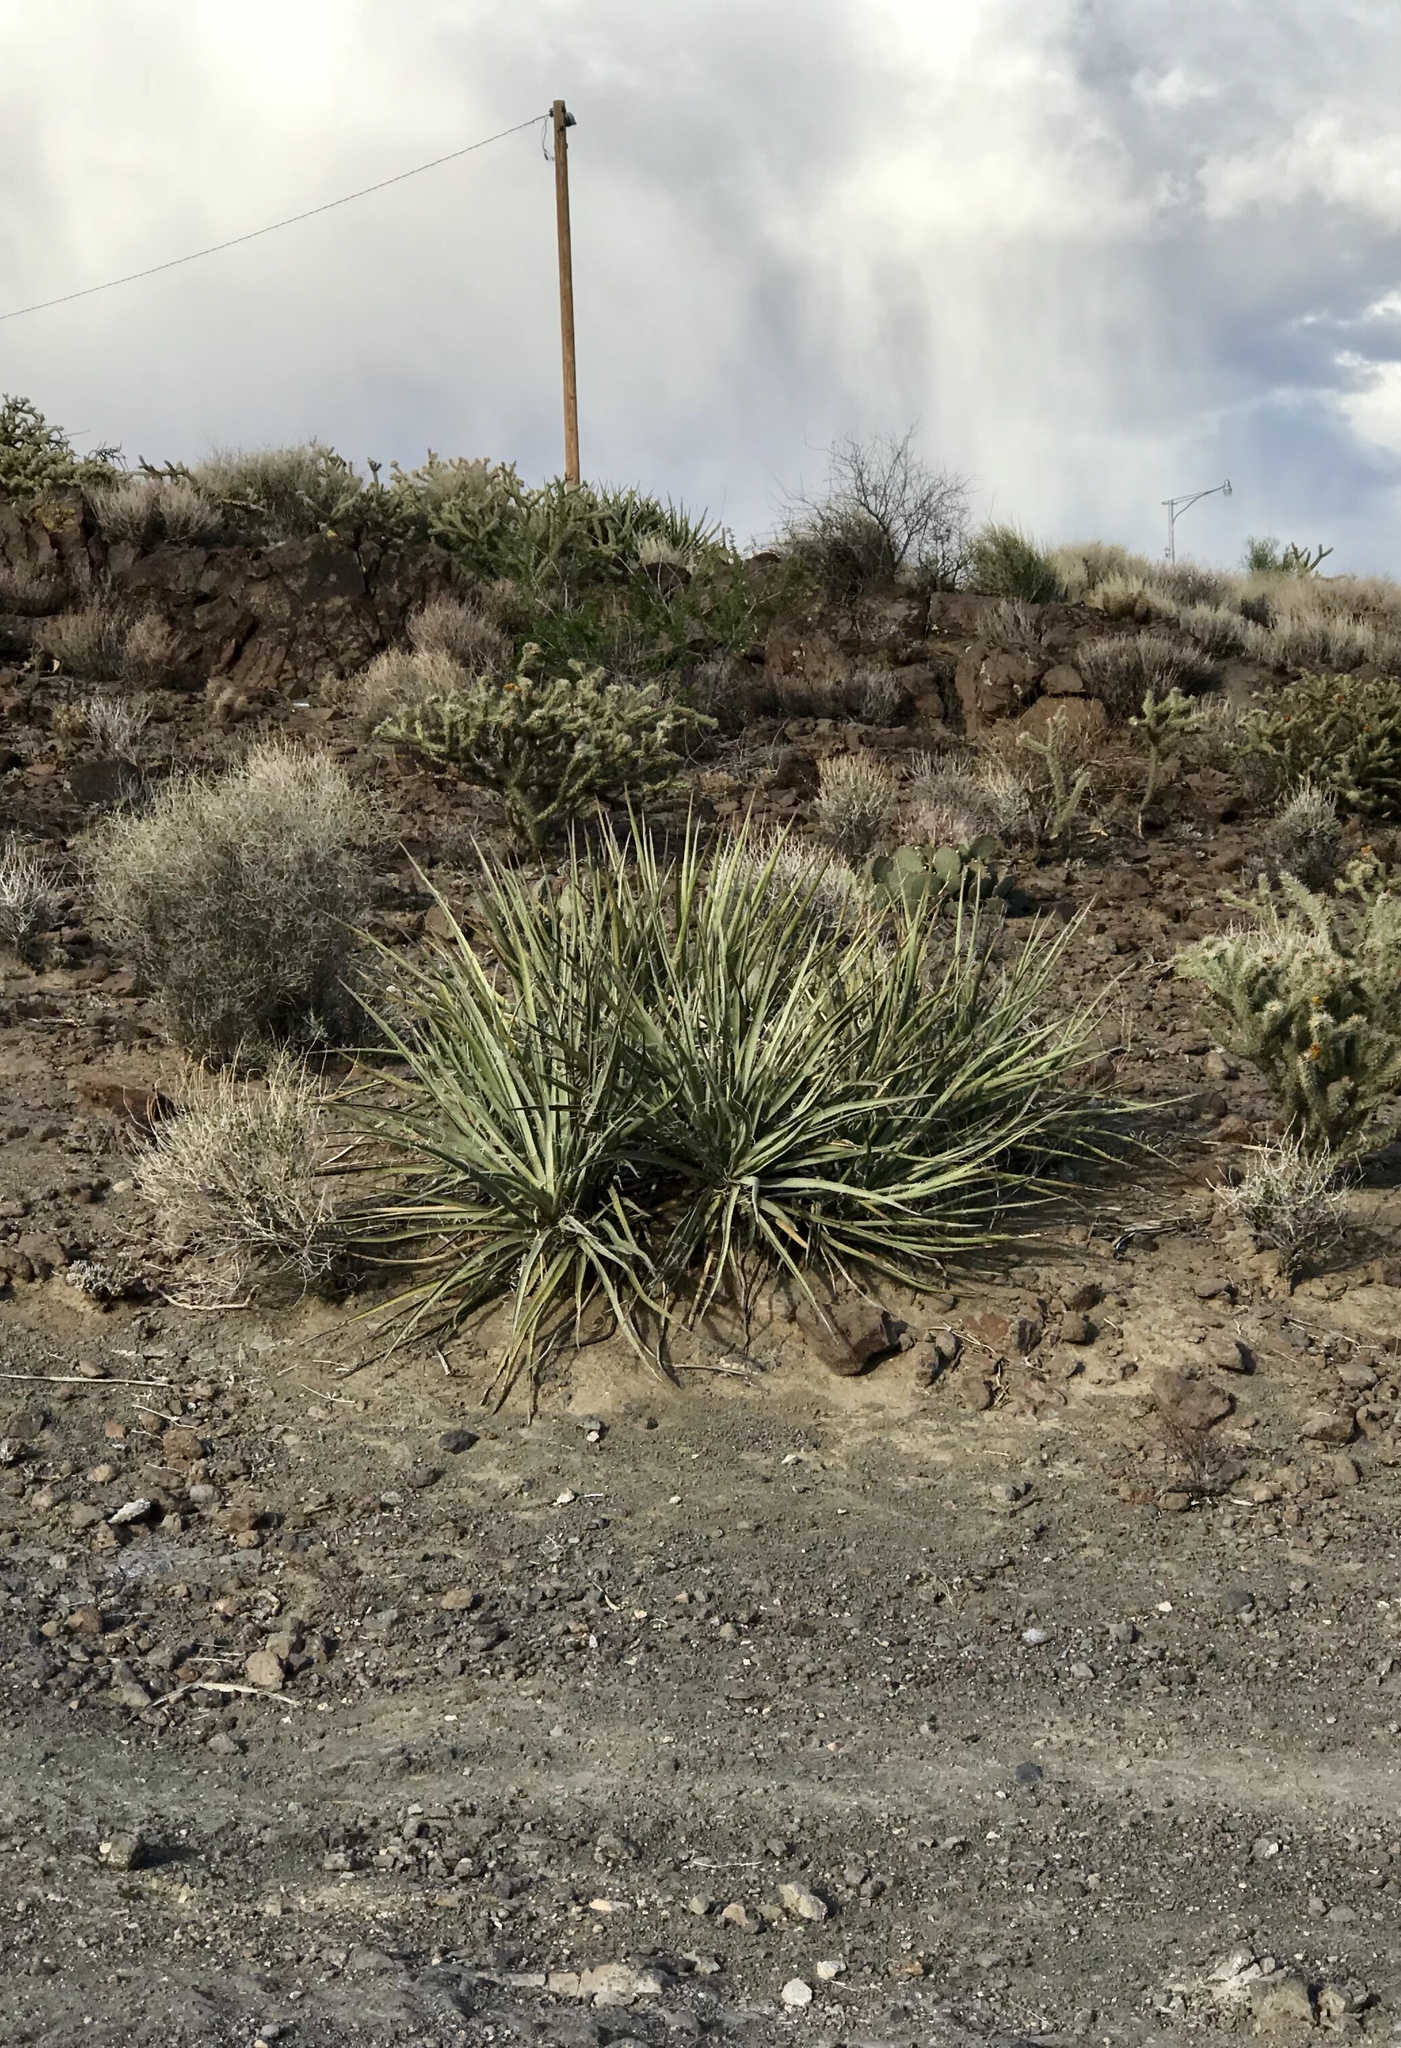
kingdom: Plantae
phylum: Tracheophyta
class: Liliopsida
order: Asparagales
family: Asparagaceae
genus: Yucca
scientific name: Yucca baccata
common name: Banana yucca
